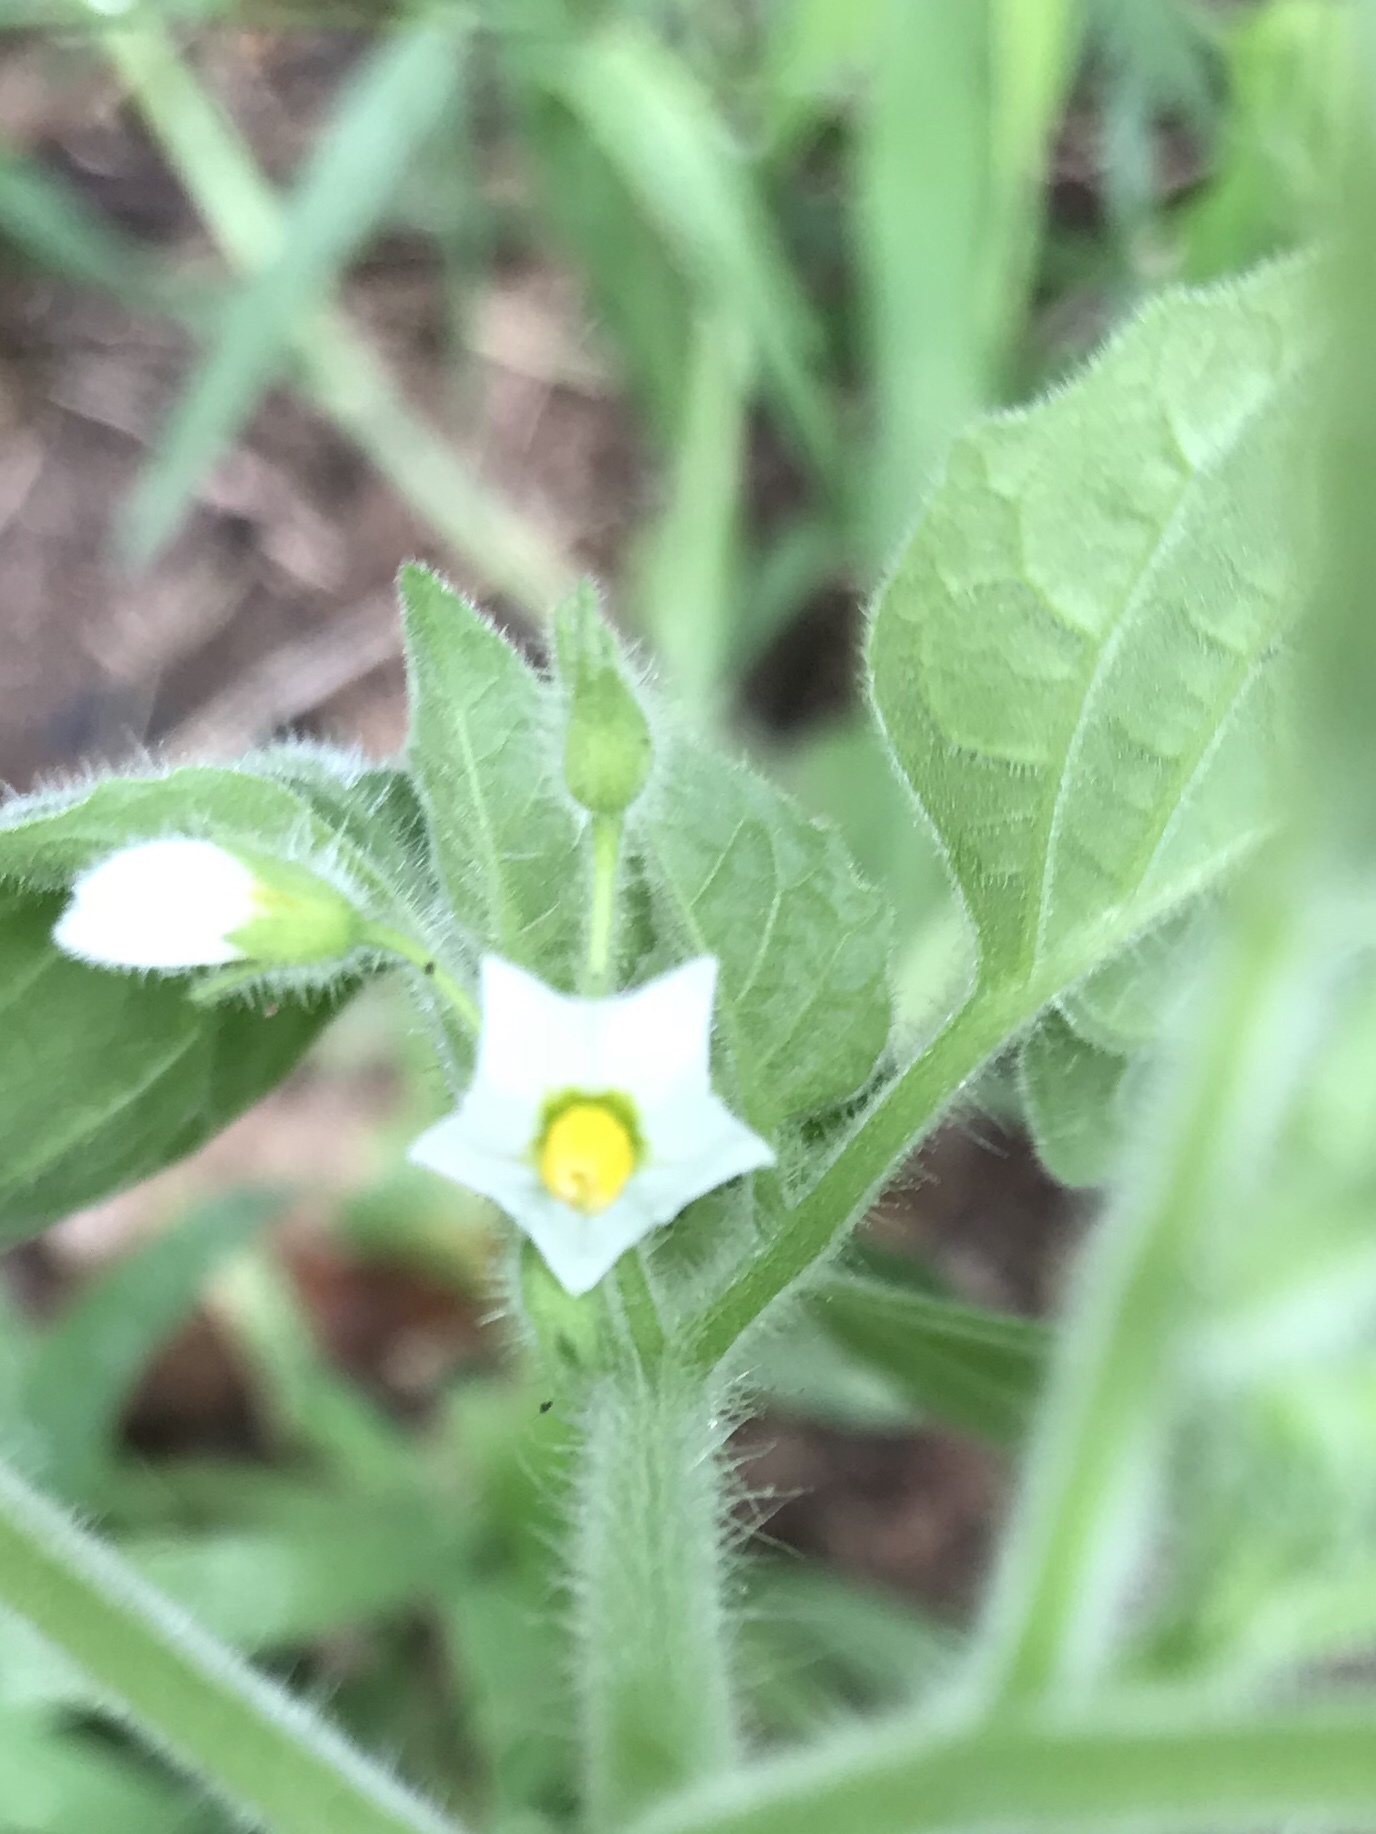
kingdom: Plantae
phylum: Tracheophyta
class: Magnoliopsida
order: Solanales
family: Solanaceae
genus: Solanum
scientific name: Solanum sarrachoides
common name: Leafy-fruited nightshade
